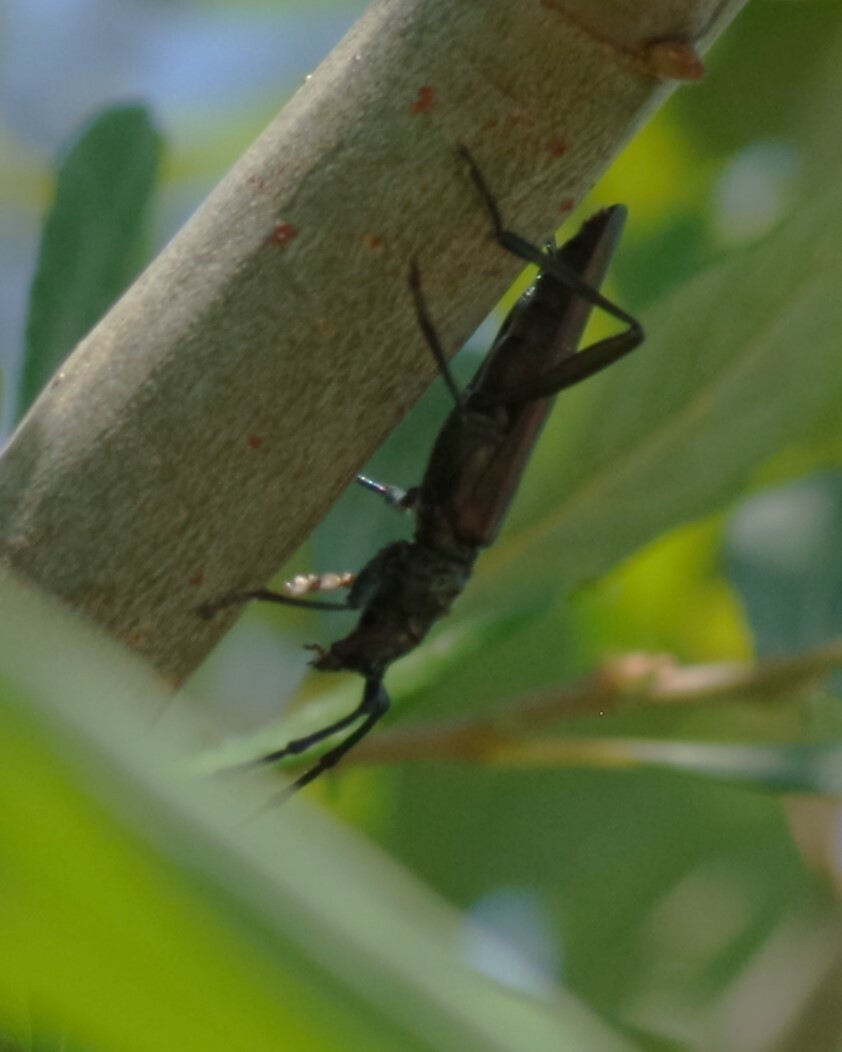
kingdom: Animalia
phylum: Arthropoda
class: Insecta
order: Coleoptera
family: Cerambycidae
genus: Aromia
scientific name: Aromia moschata
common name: Musk beetle
